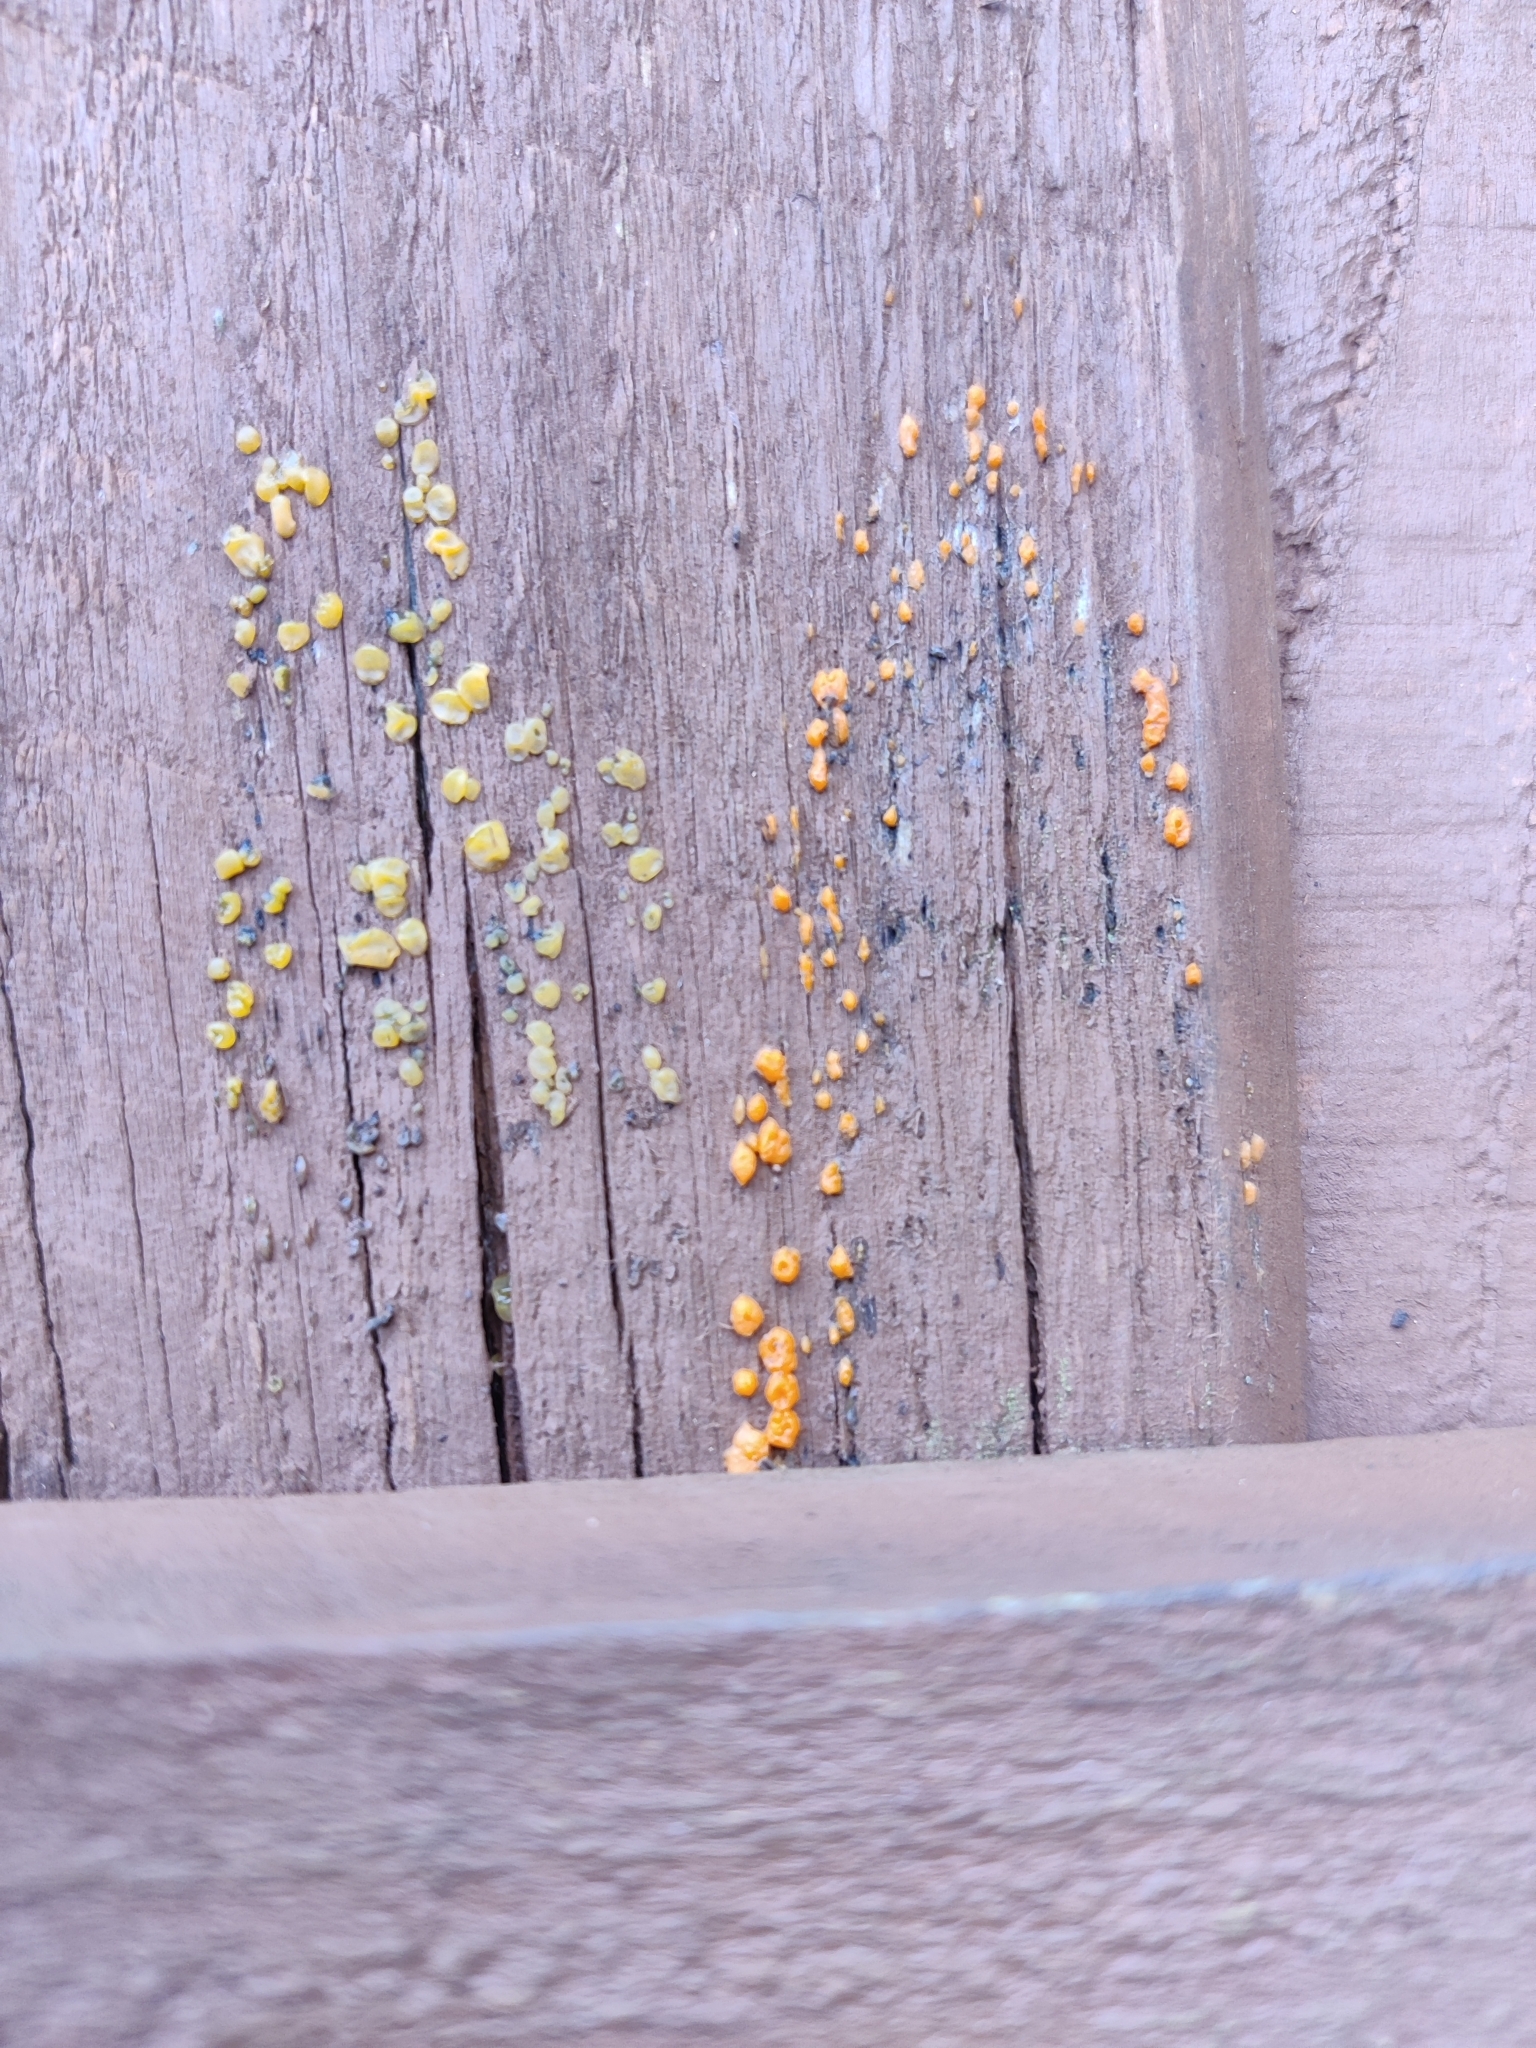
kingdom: Fungi
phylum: Basidiomycota
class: Dacrymycetes
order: Dacrymycetales
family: Dacrymycetaceae
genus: Dacrymyces
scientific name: Dacrymyces stillatus
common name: Common jelly spot
